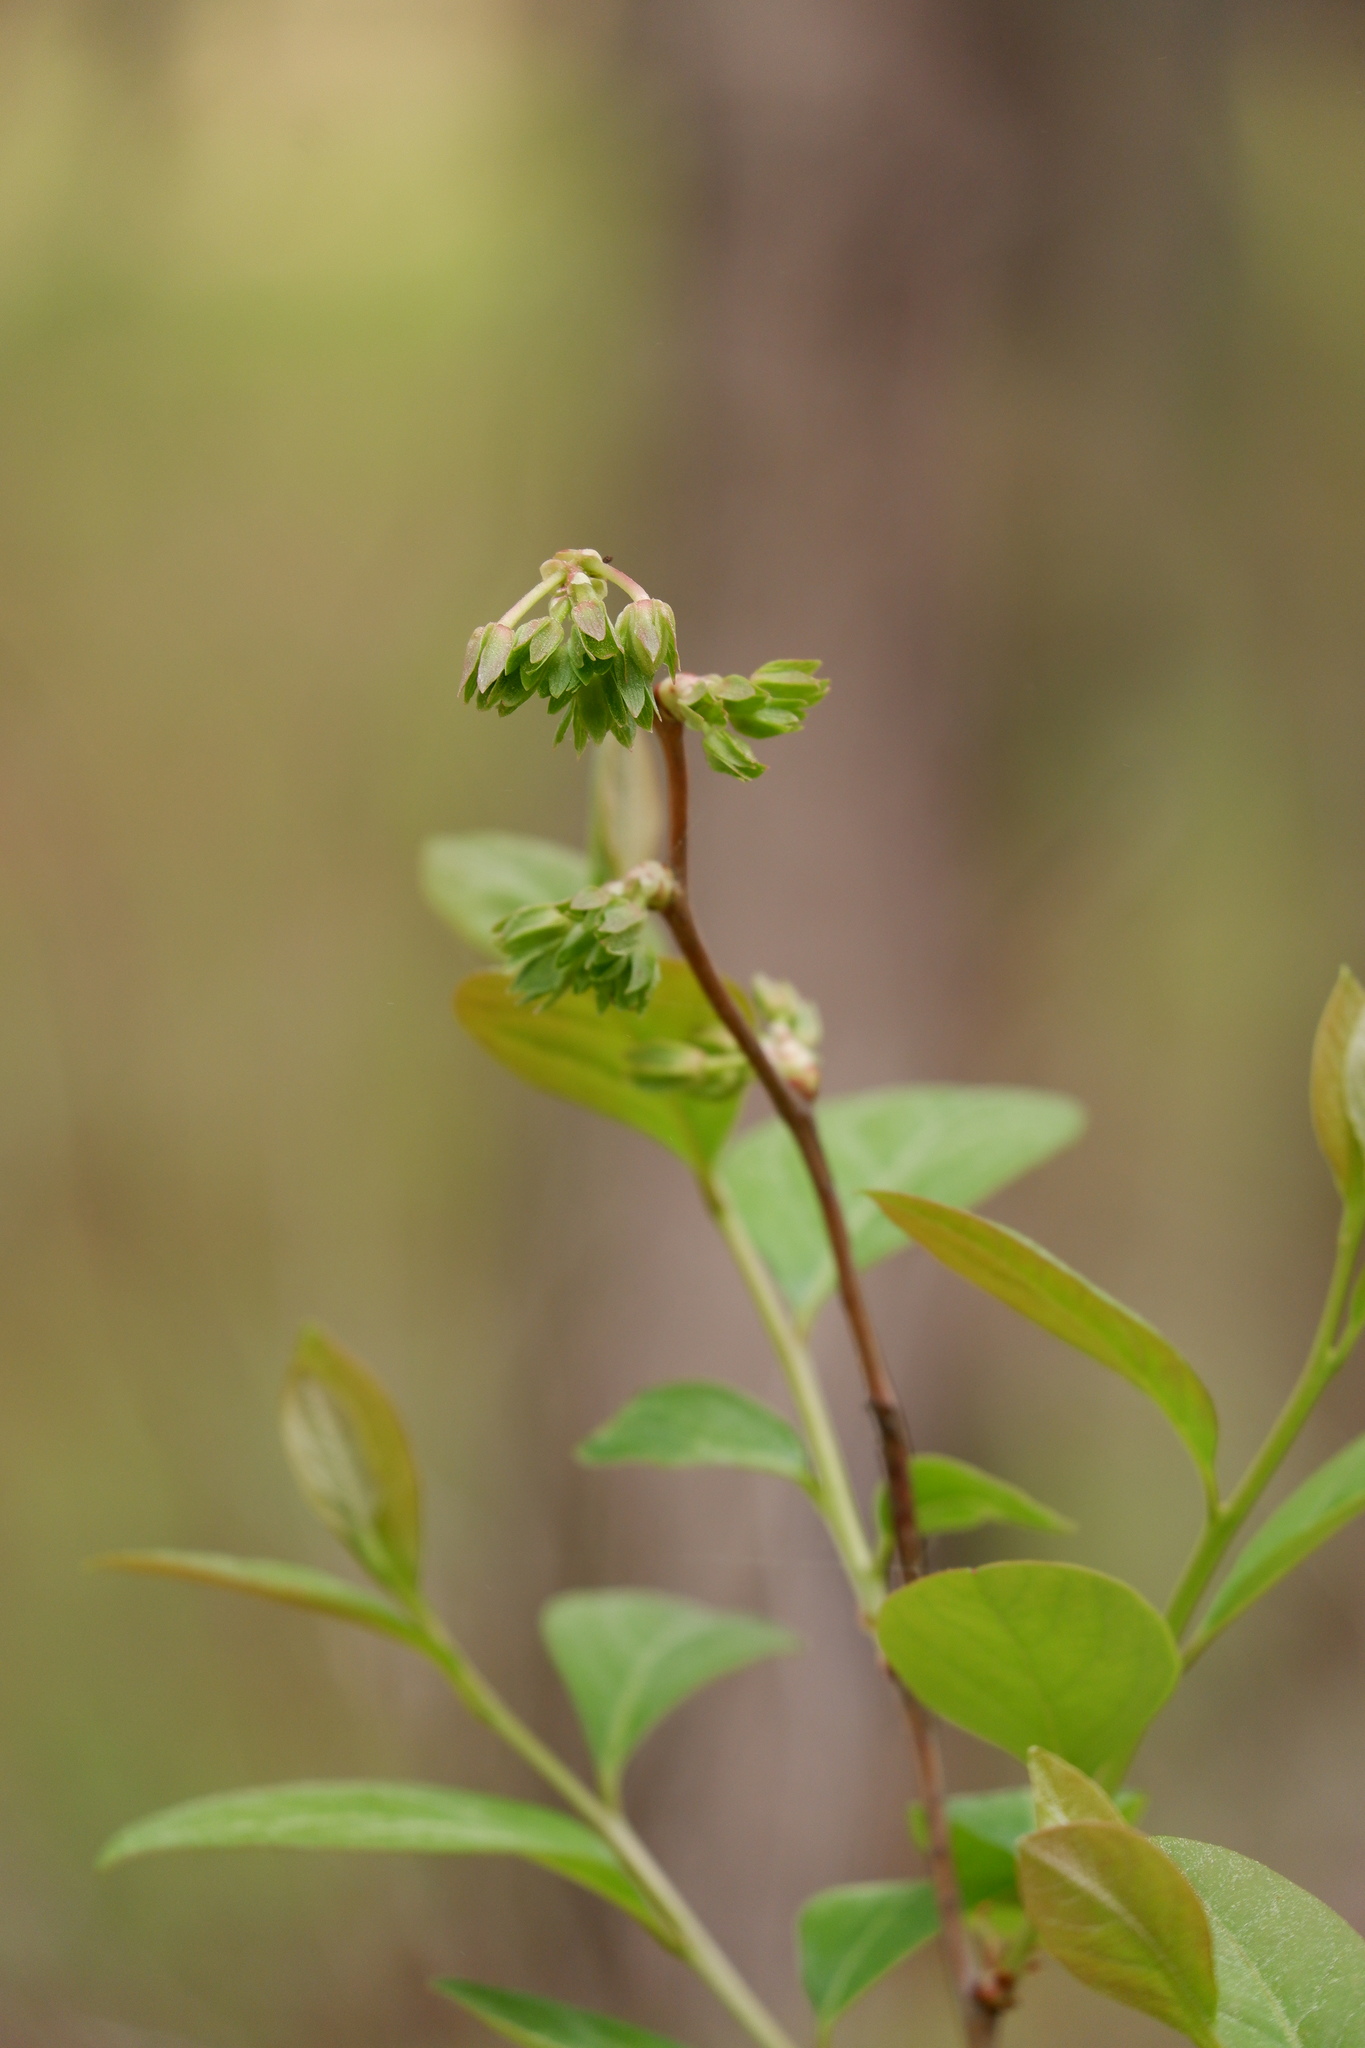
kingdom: Plantae
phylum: Tracheophyta
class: Magnoliopsida
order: Ericales
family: Ericaceae
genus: Lyonia
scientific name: Lyonia mariana
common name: Staggerbush
